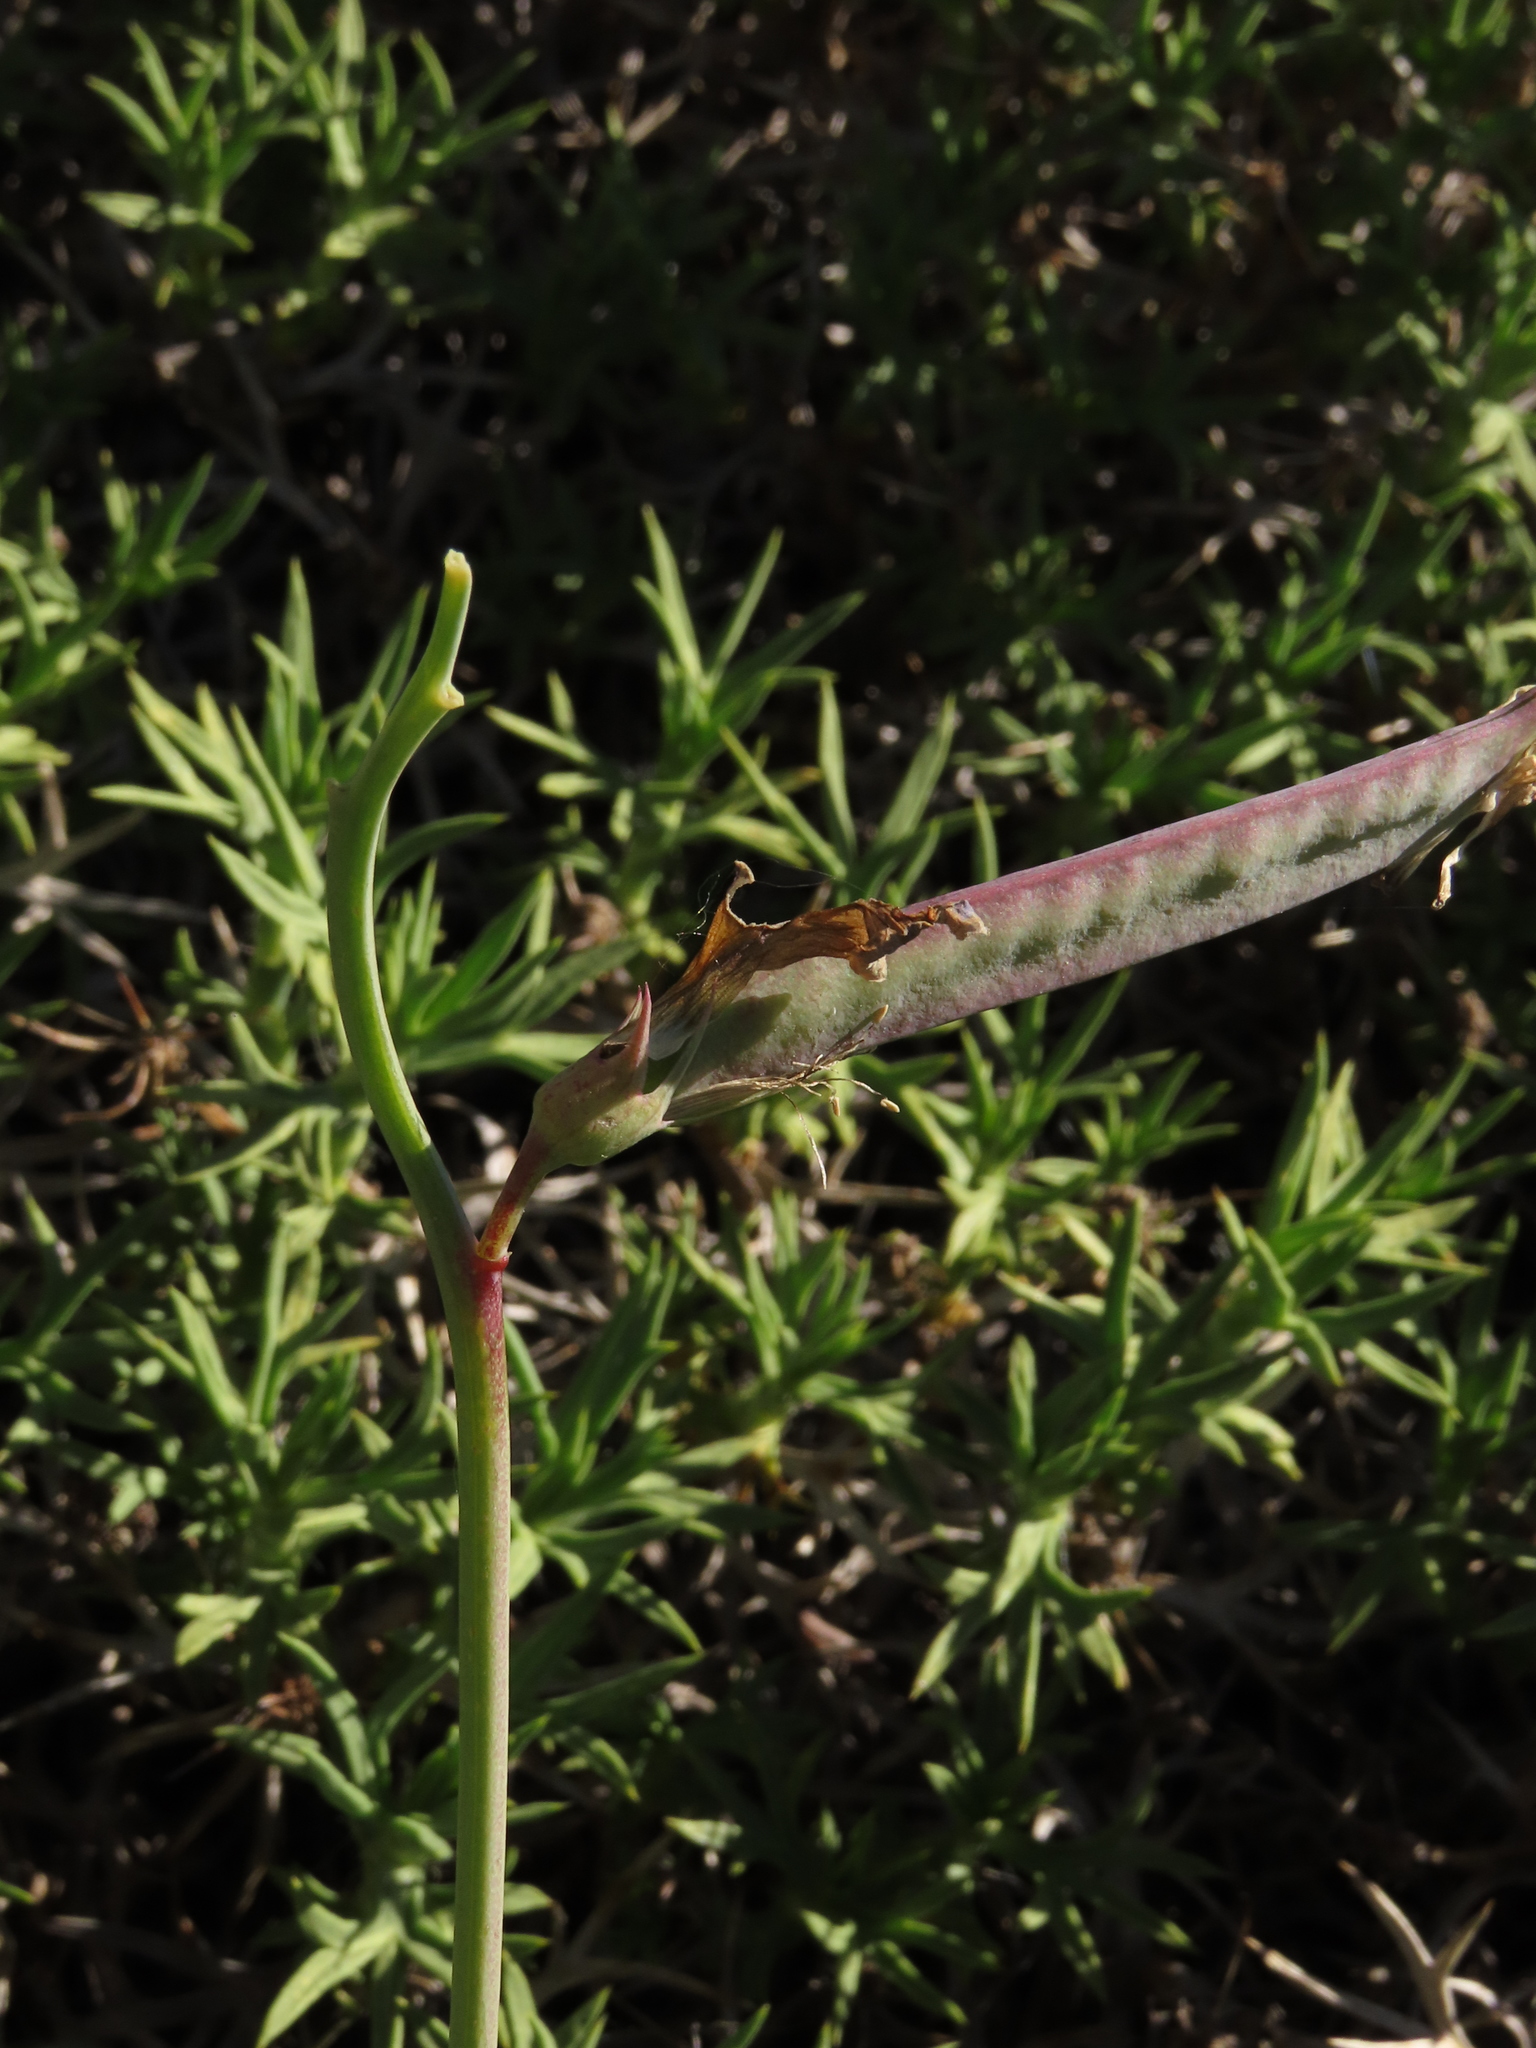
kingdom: Plantae
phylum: Tracheophyta
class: Magnoliopsida
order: Fabales
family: Fabaceae
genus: Lathyrus
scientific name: Lathyrus magellanicus
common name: Lord anson's pea
